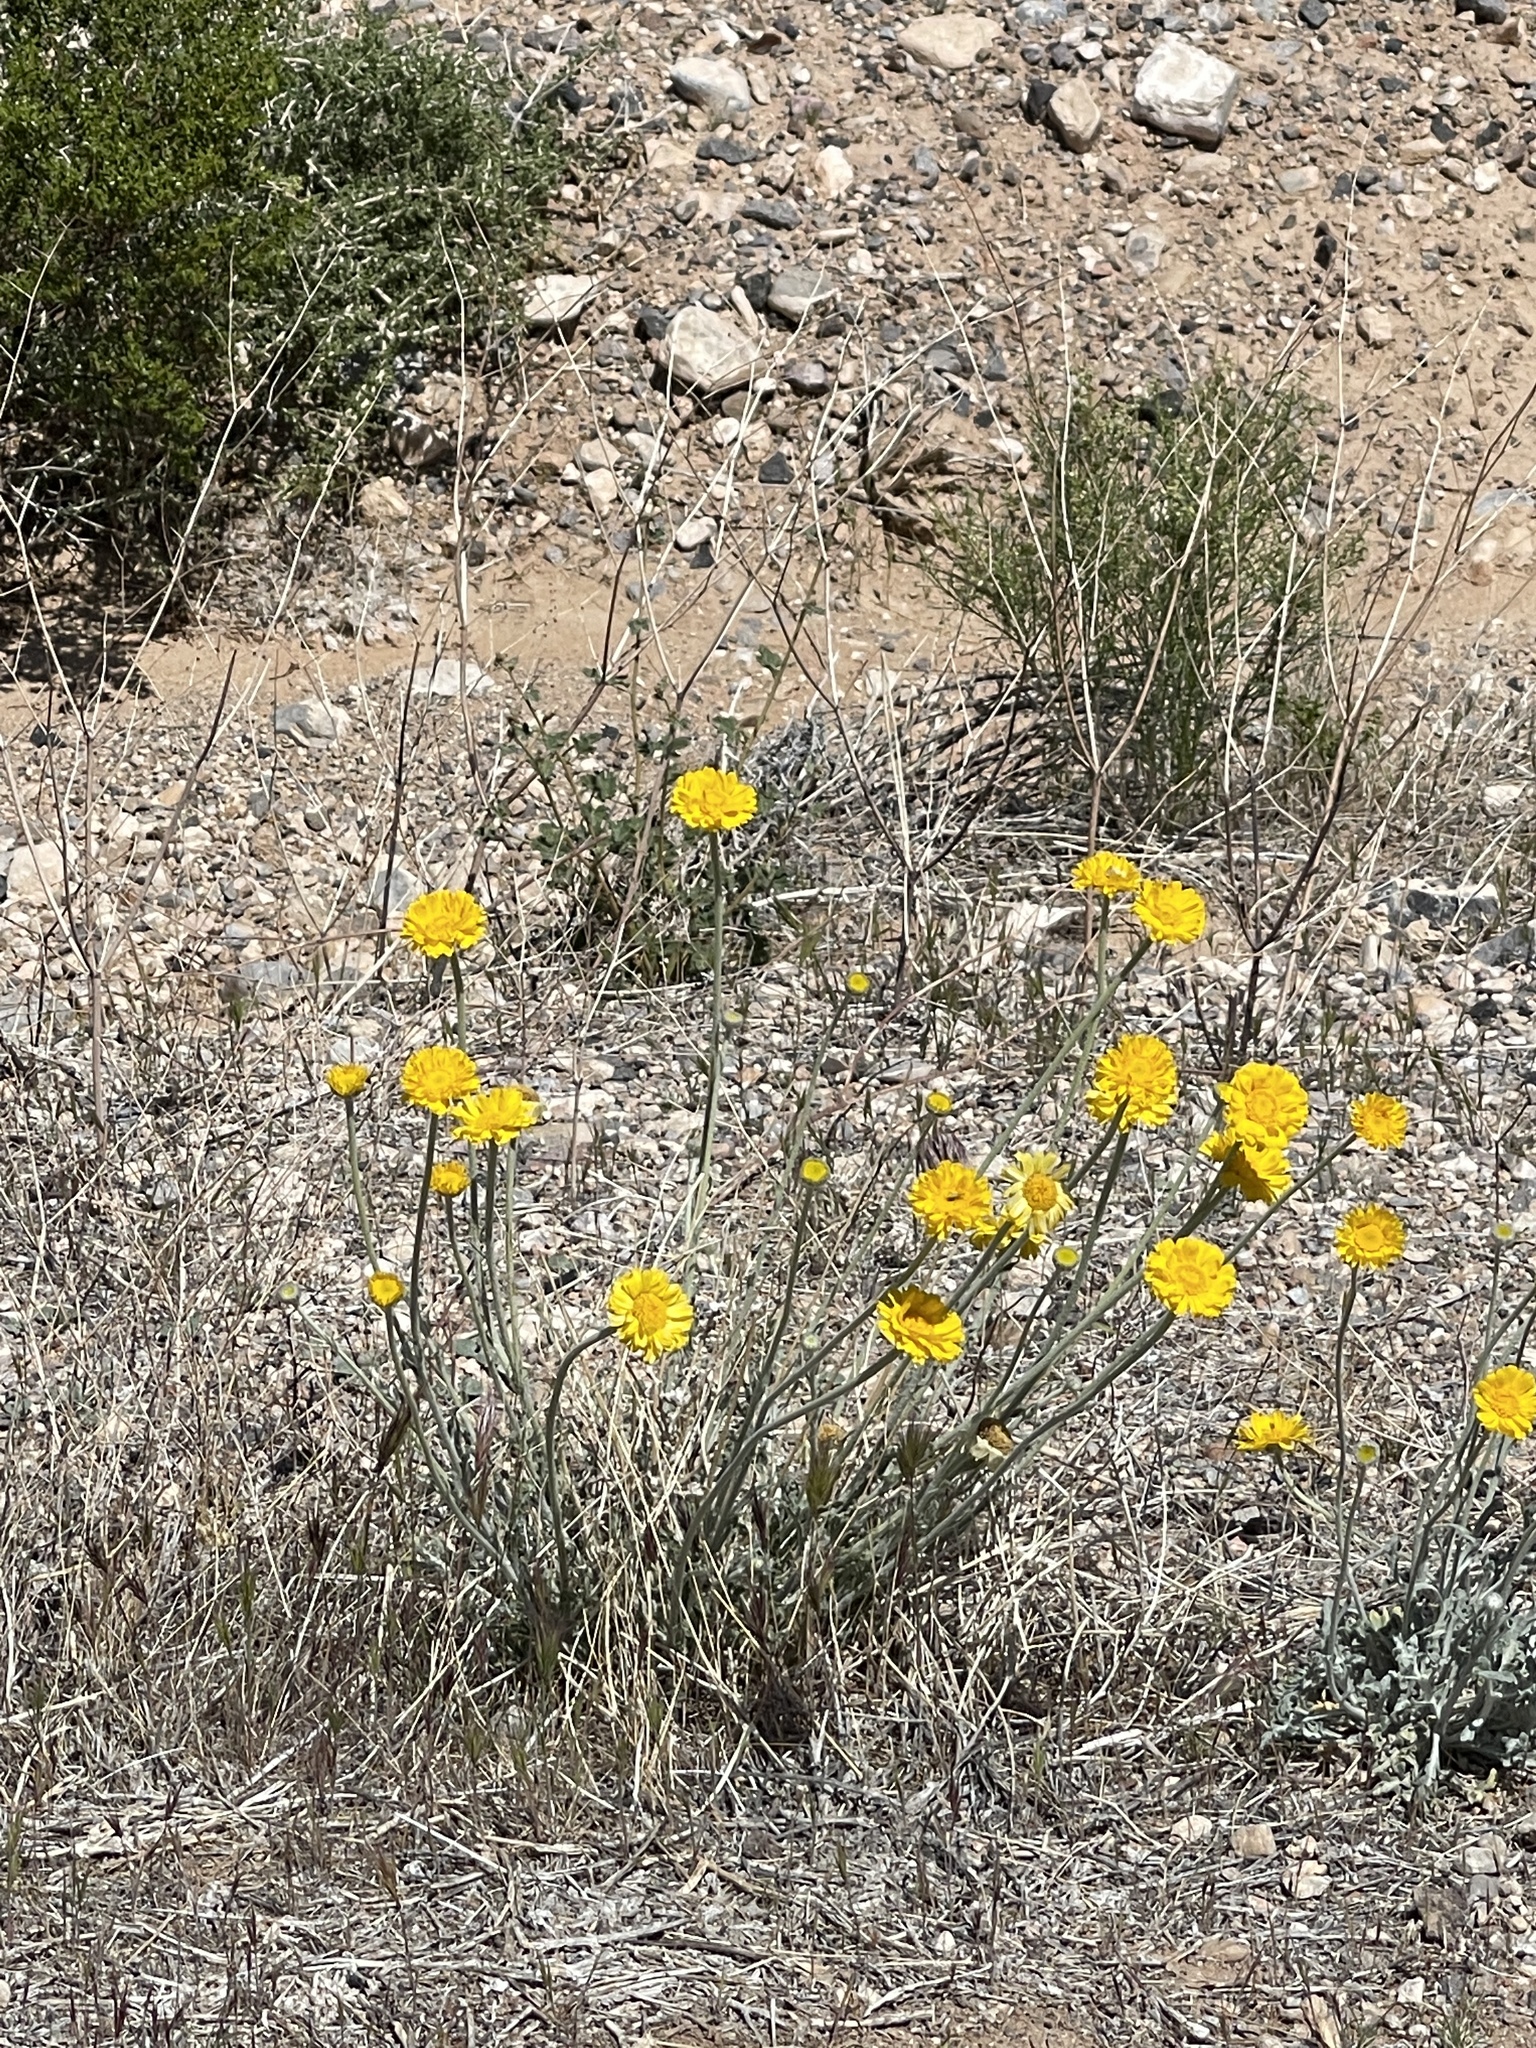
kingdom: Plantae
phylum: Tracheophyta
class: Magnoliopsida
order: Asterales
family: Asteraceae
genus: Baileya
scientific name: Baileya multiradiata
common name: Desert-marigold
